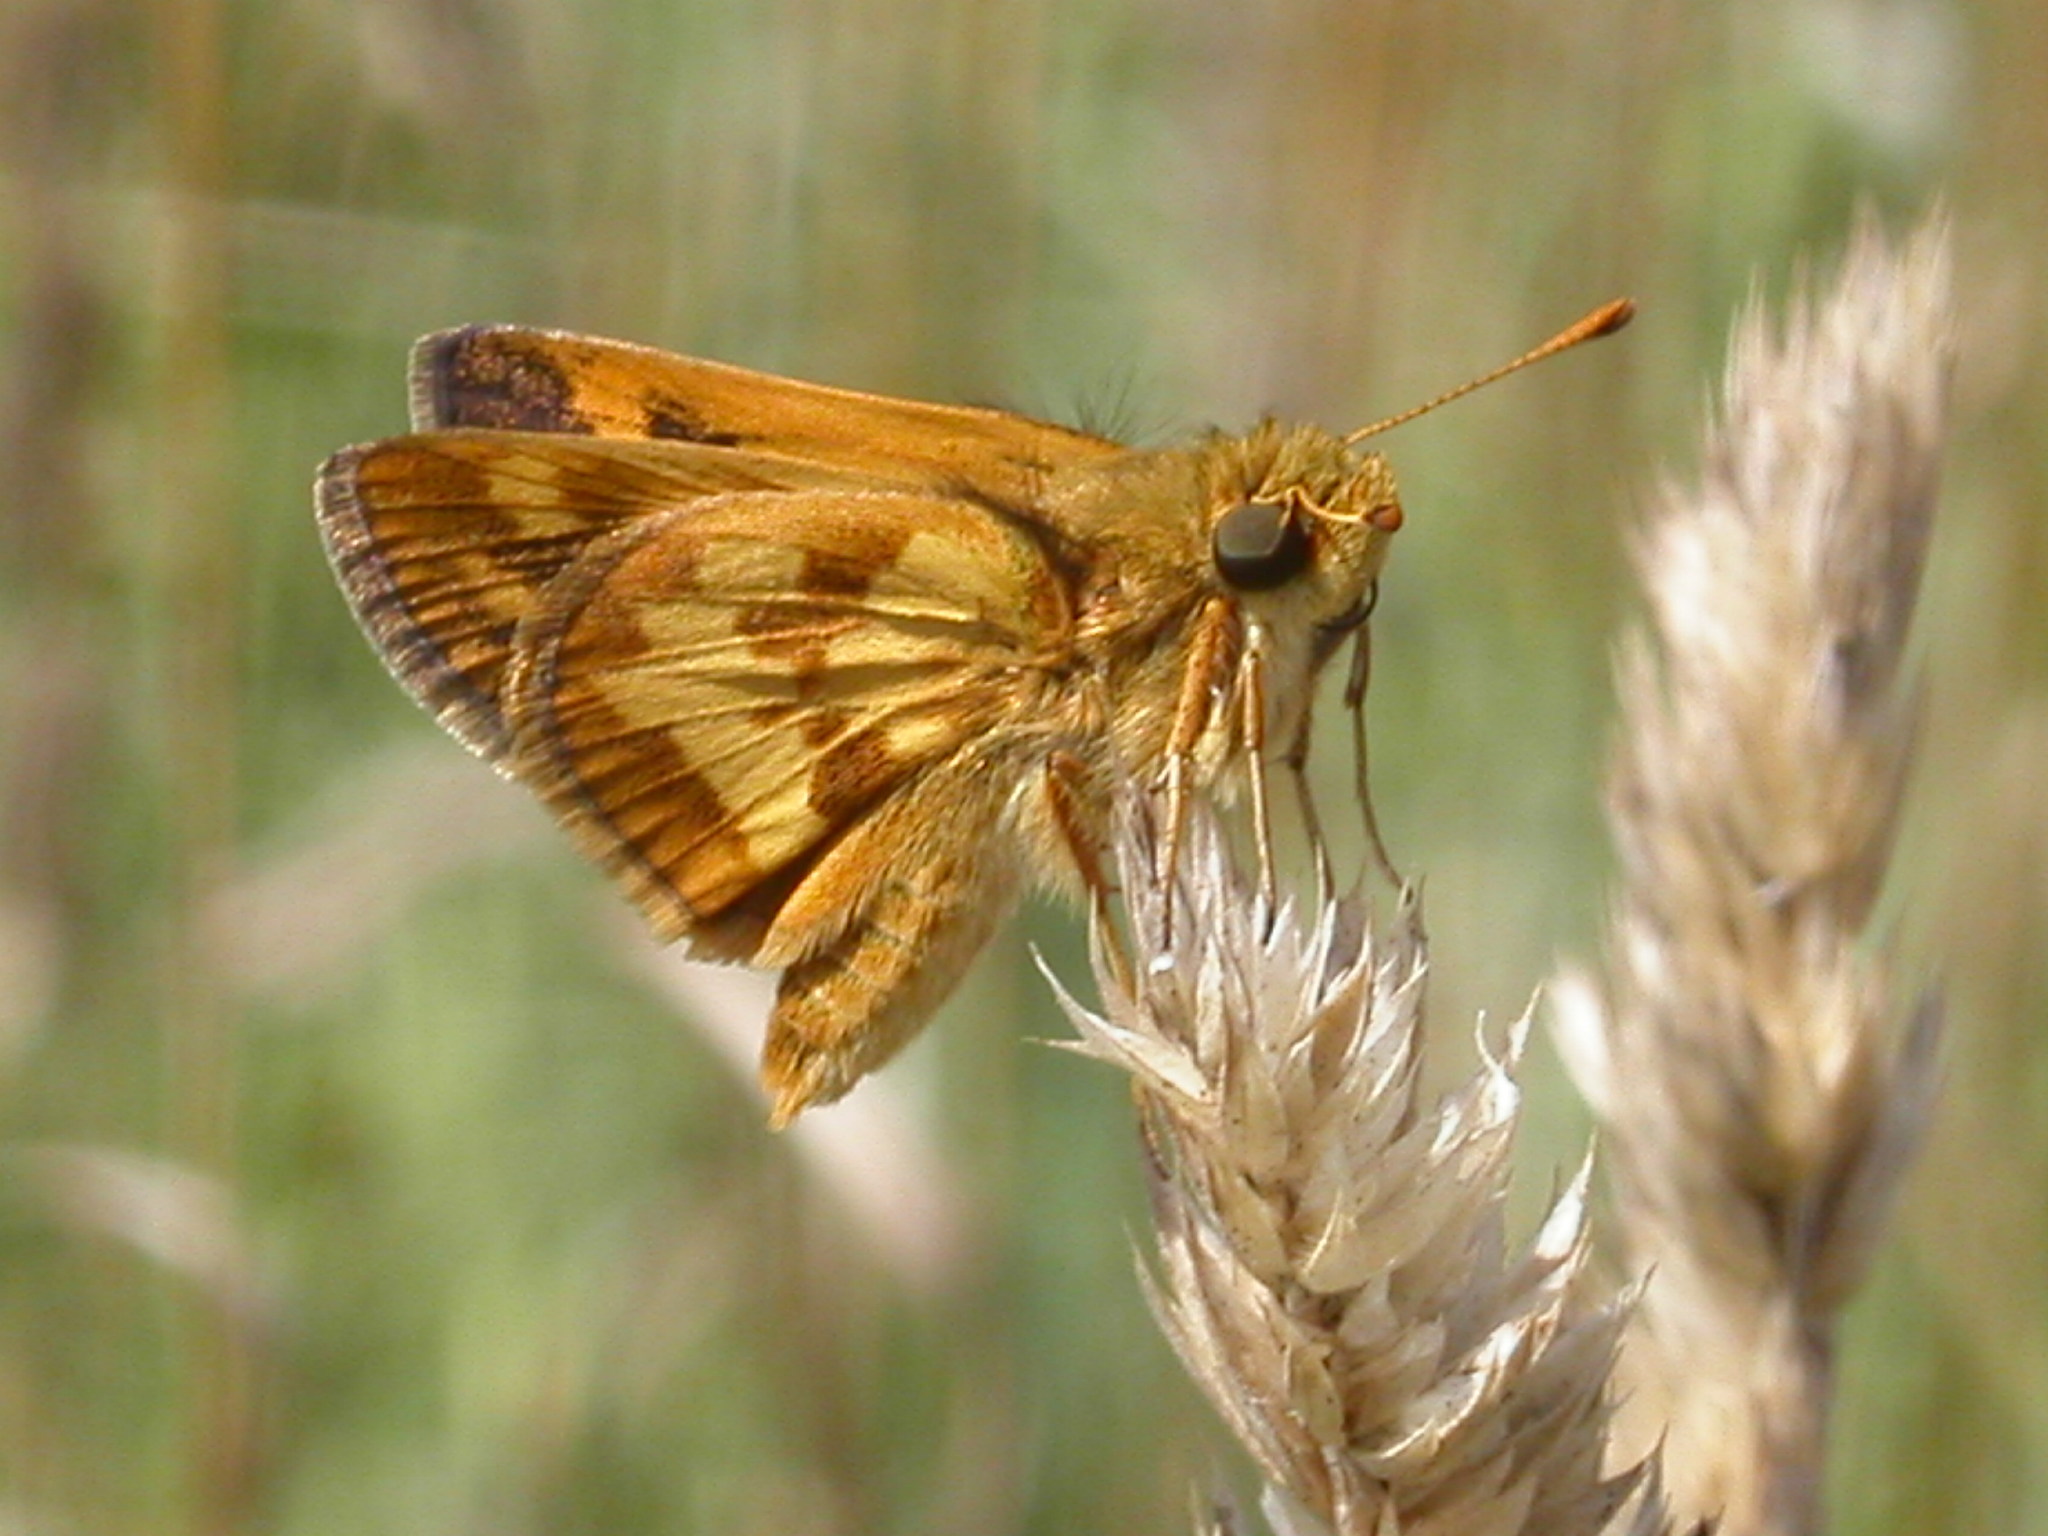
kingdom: Animalia
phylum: Arthropoda
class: Insecta
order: Lepidoptera
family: Hesperiidae
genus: Polites
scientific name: Polites coras
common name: Peck's skipper
